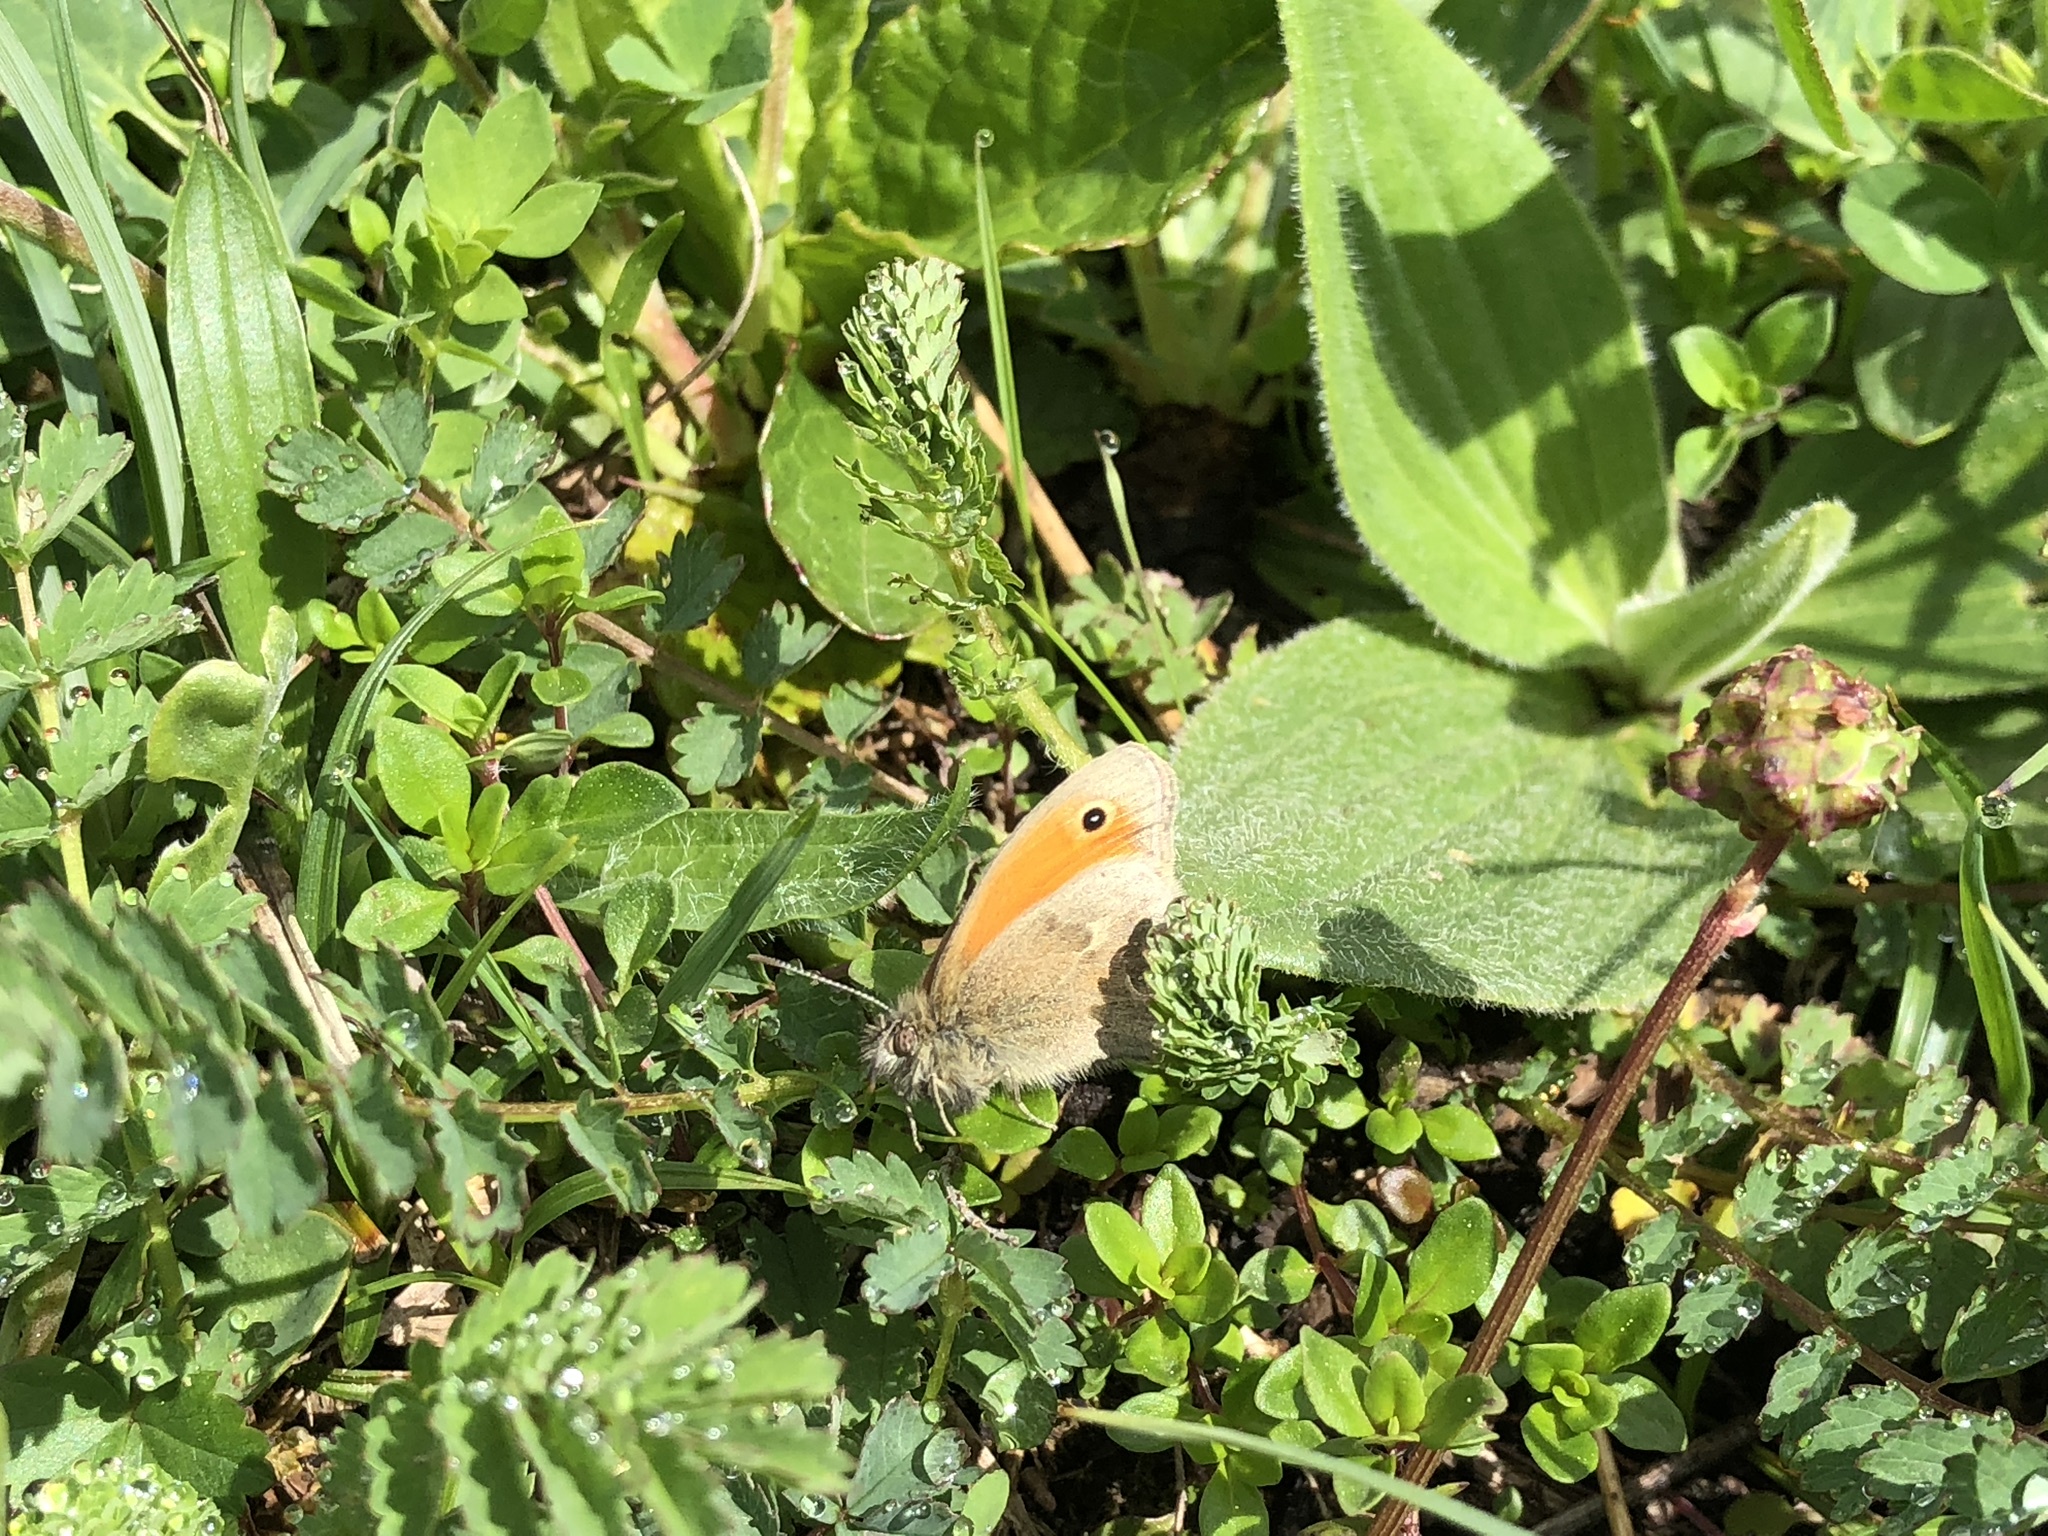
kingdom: Animalia
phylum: Arthropoda
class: Insecta
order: Lepidoptera
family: Nymphalidae
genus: Coenonympha
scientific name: Coenonympha pamphilus
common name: Small heath
